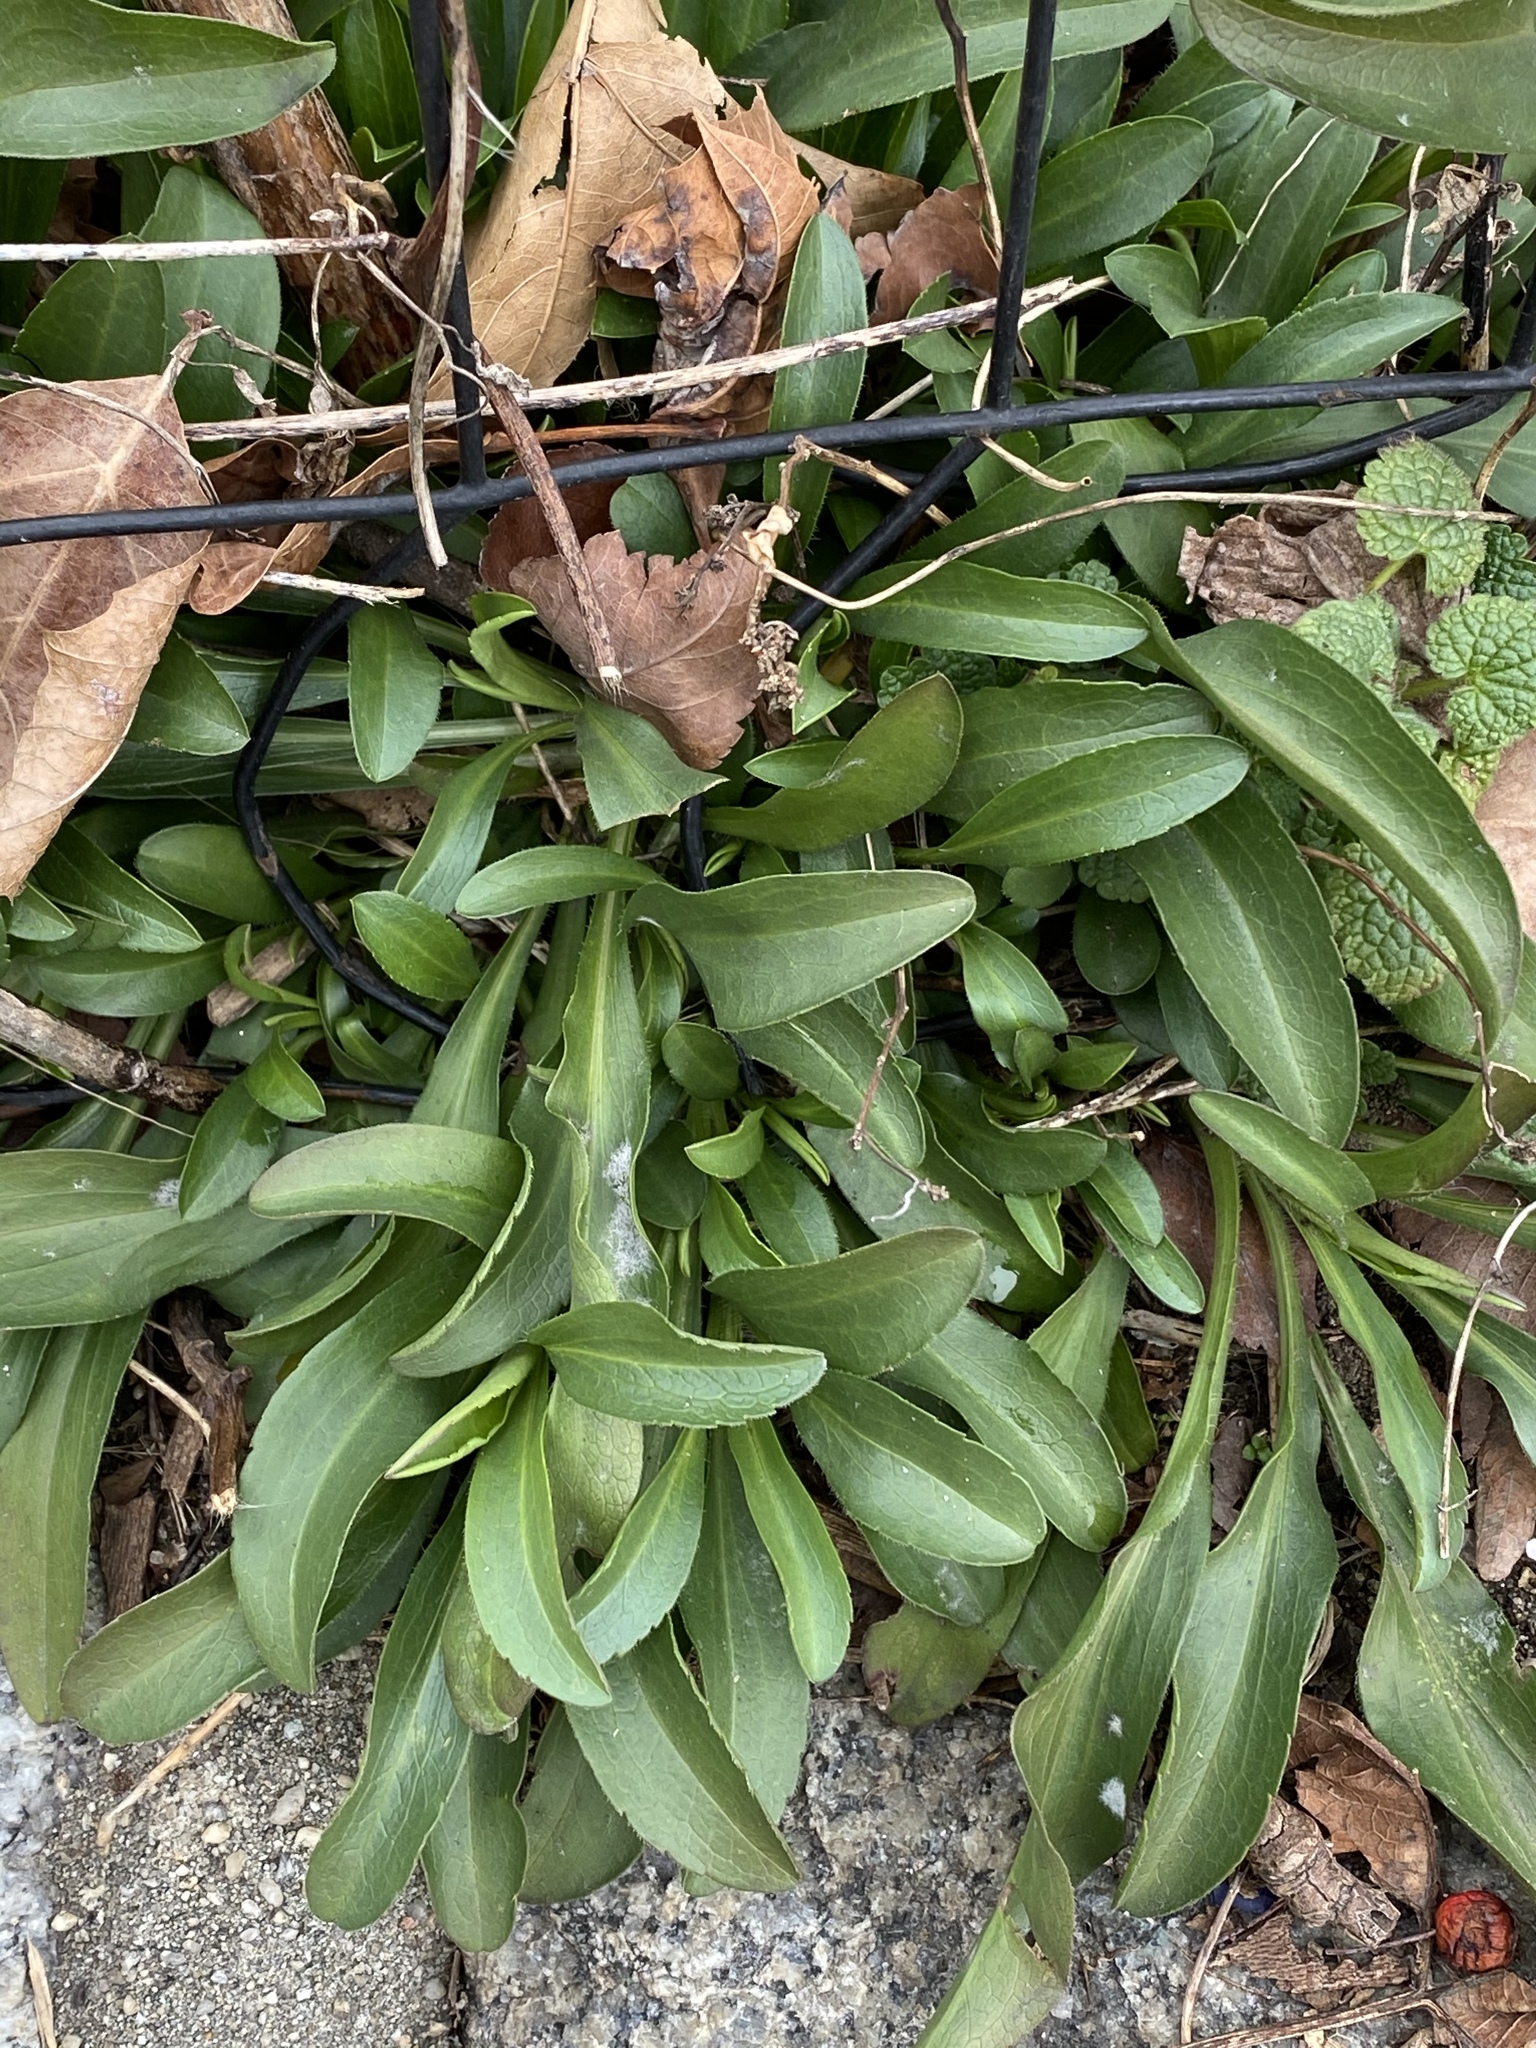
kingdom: Plantae
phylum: Tracheophyta
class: Magnoliopsida
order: Asterales
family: Asteraceae
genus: Solidago
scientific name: Solidago sempervirens
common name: Salt-marsh goldenrod
